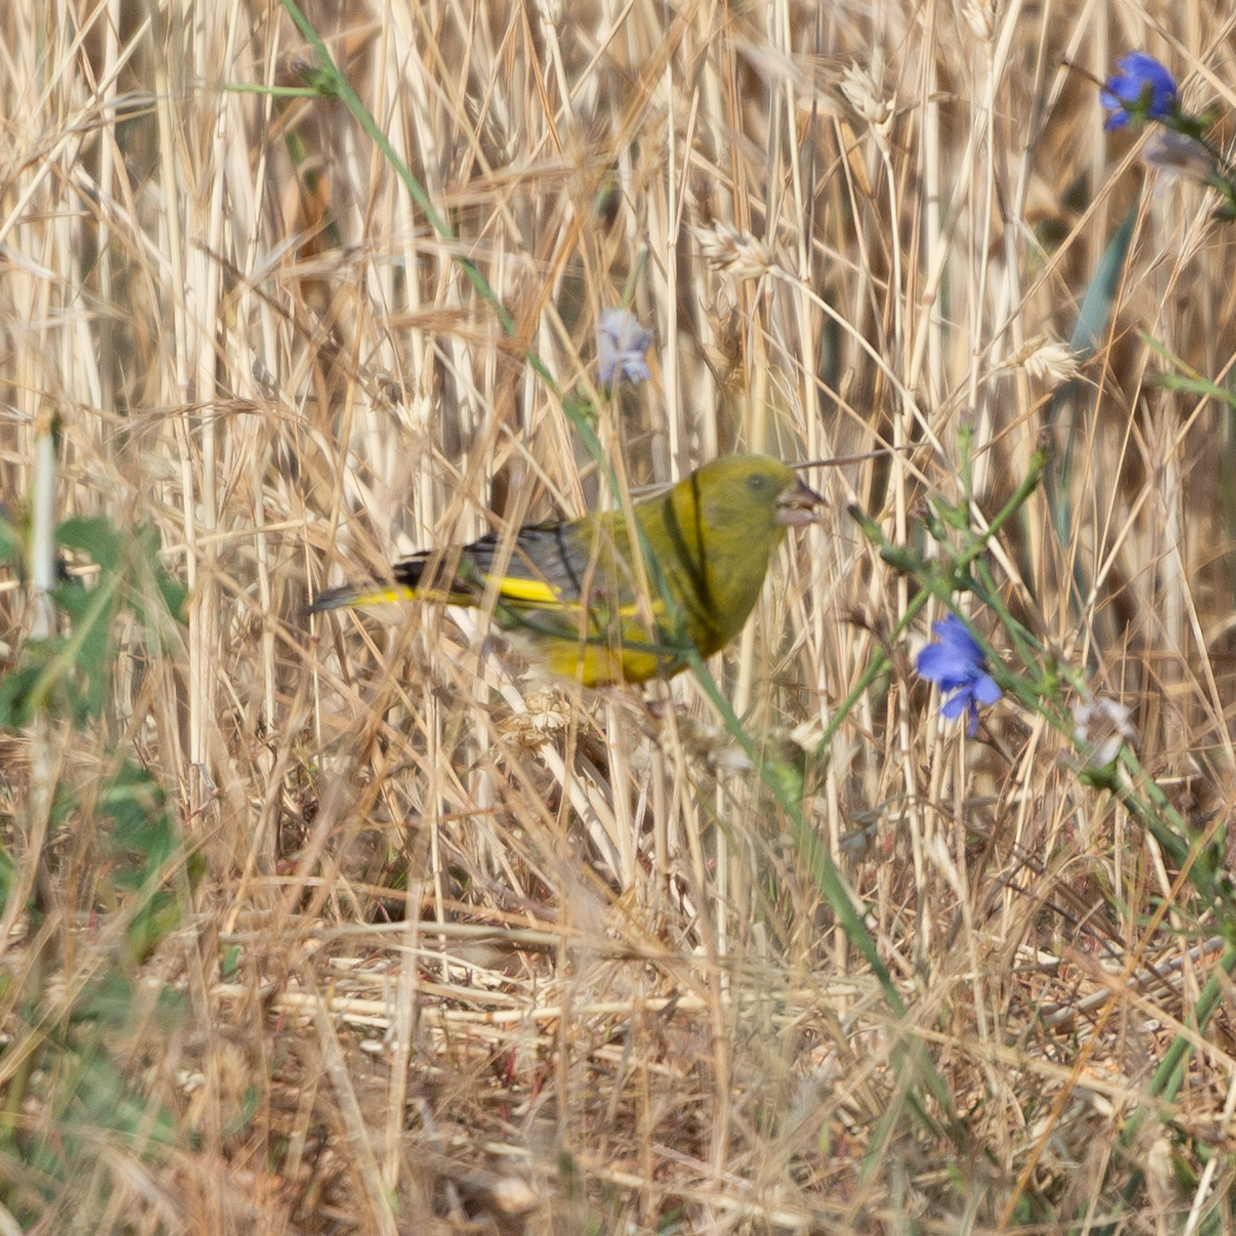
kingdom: Plantae
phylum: Tracheophyta
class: Liliopsida
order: Poales
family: Poaceae
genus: Chloris
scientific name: Chloris chloris
